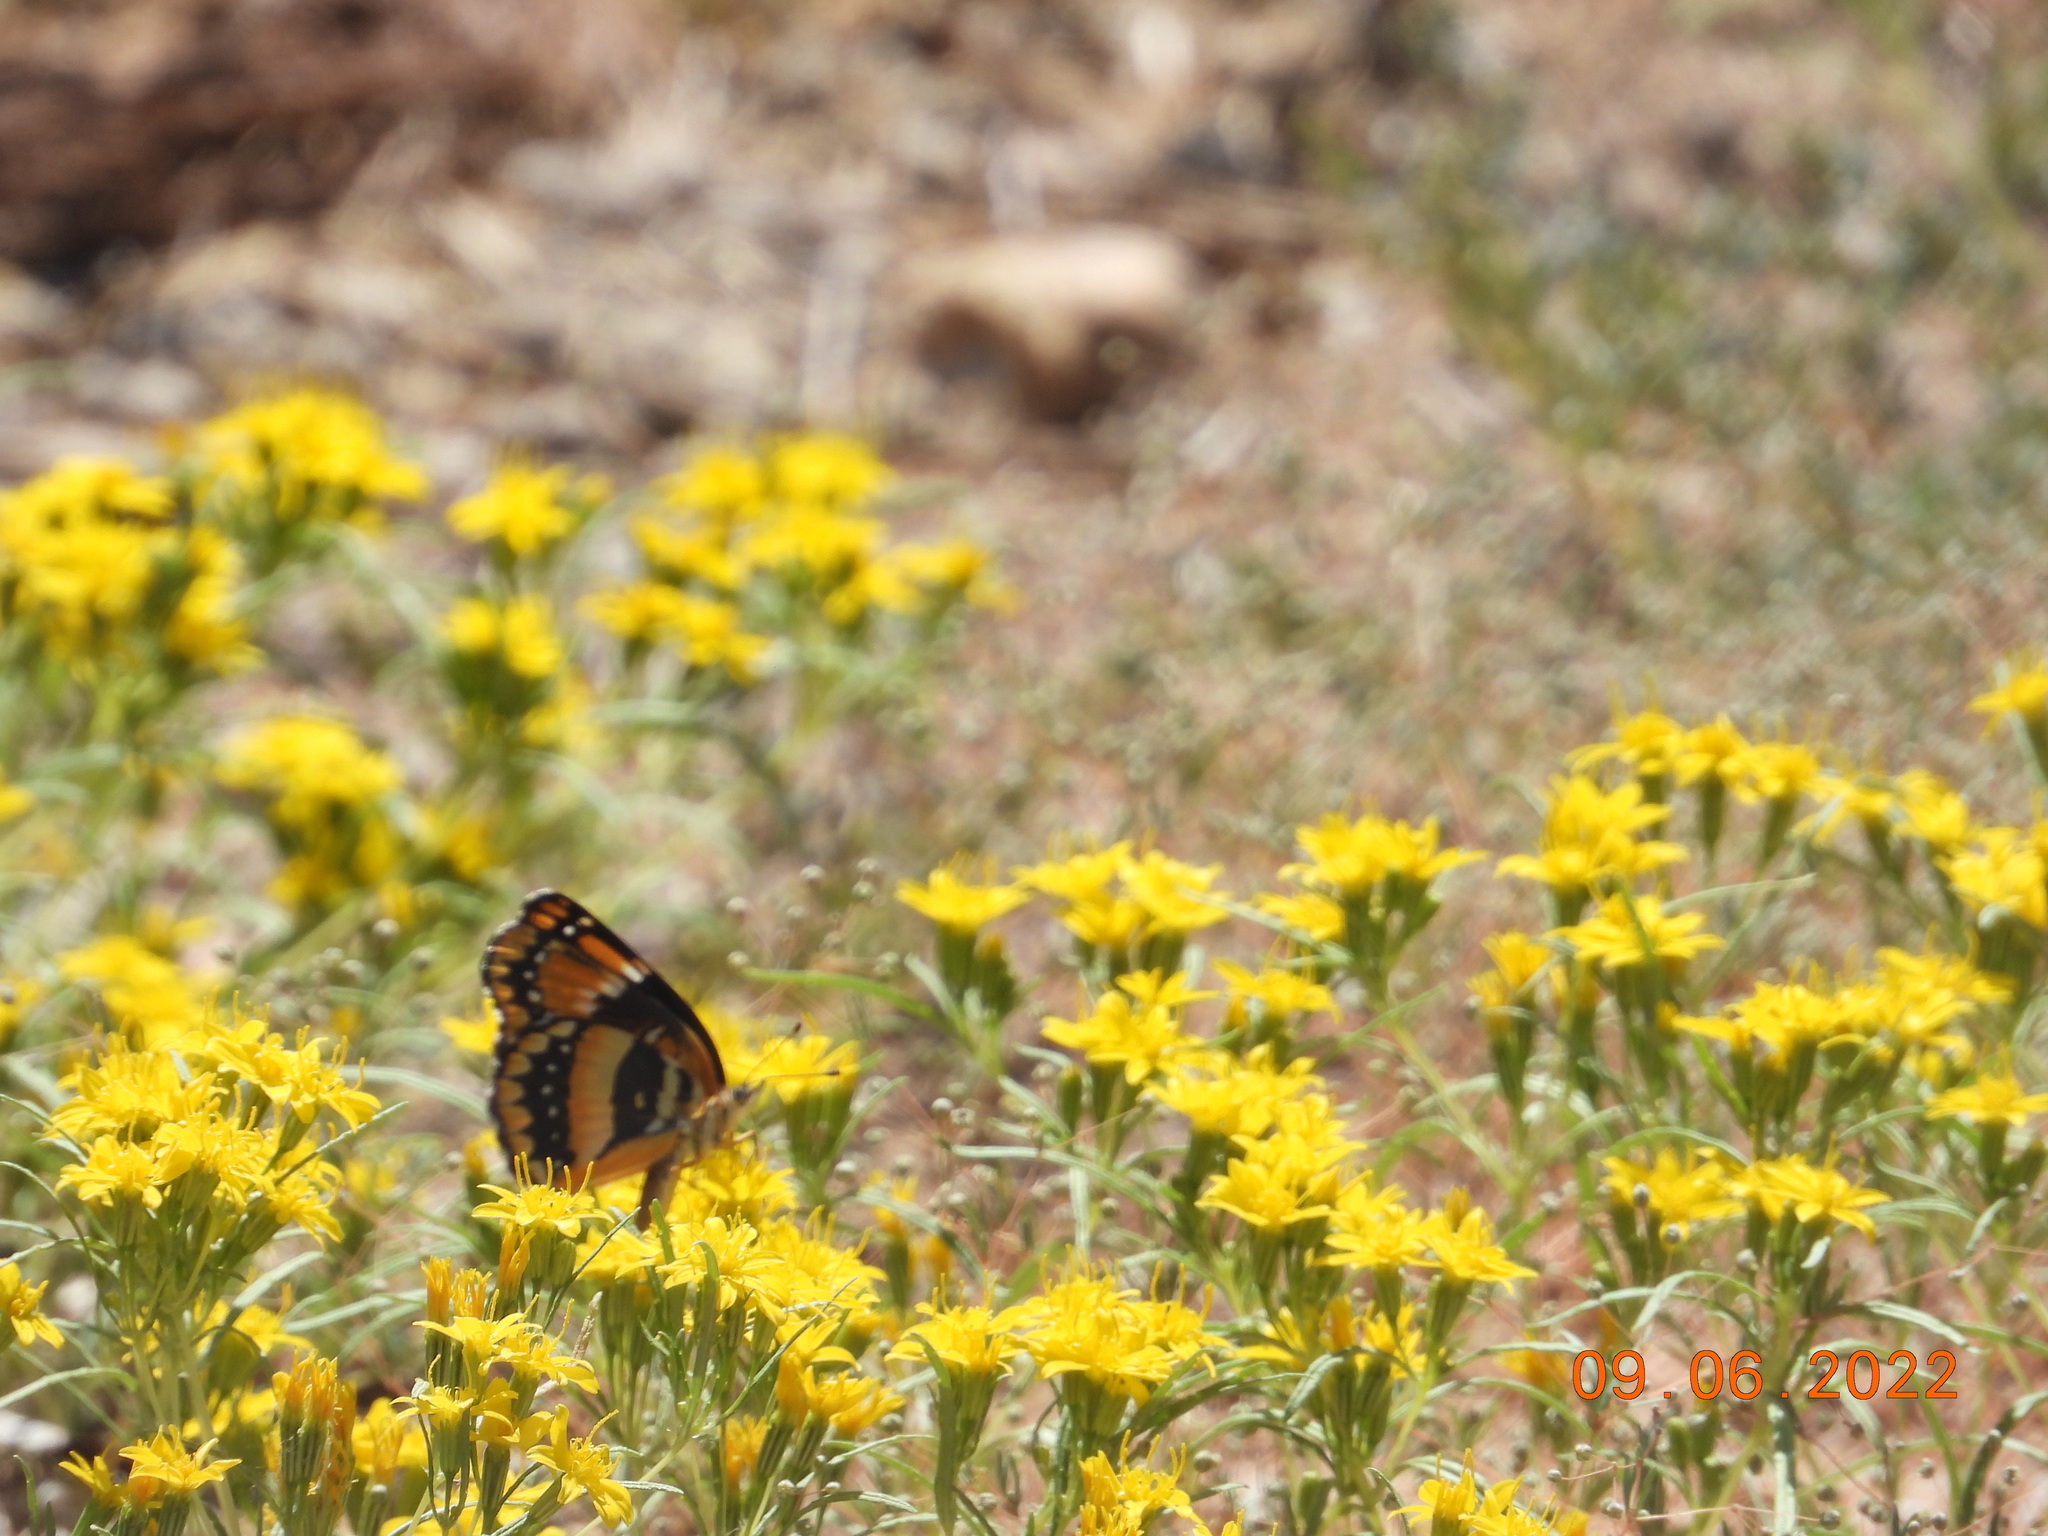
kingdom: Animalia
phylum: Arthropoda
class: Insecta
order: Lepidoptera
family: Nymphalidae
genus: Chlosyne
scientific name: Chlosyne californica
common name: California patch
